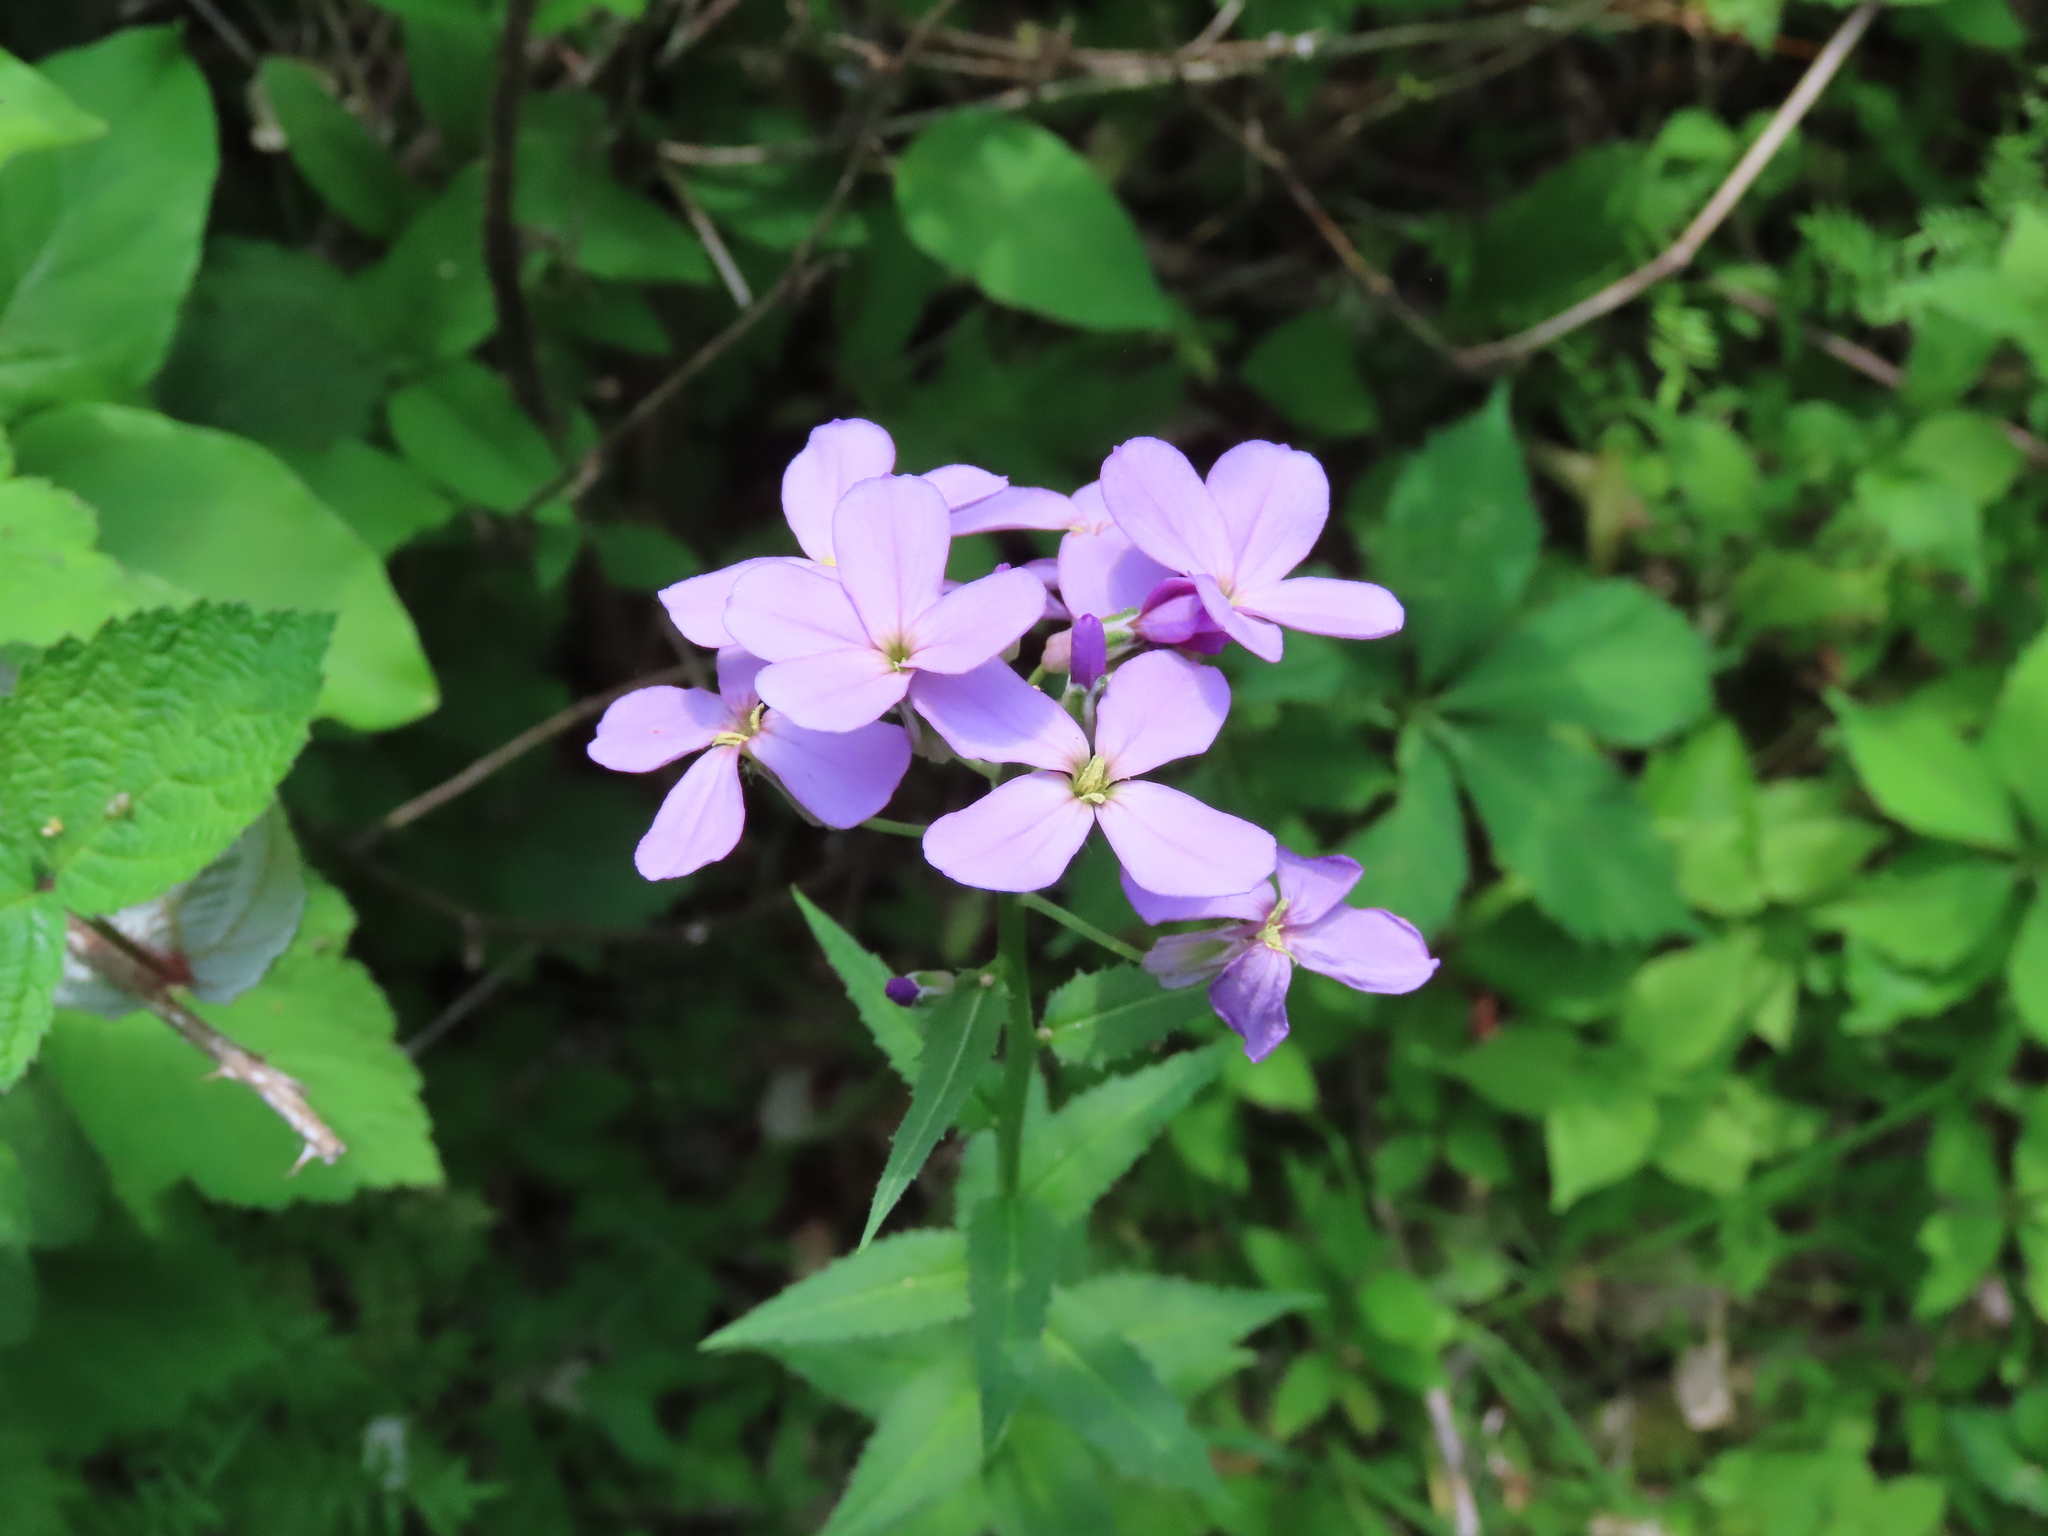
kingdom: Plantae
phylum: Tracheophyta
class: Magnoliopsida
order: Brassicales
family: Brassicaceae
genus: Hesperis
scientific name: Hesperis matronalis
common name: Dame's-violet
